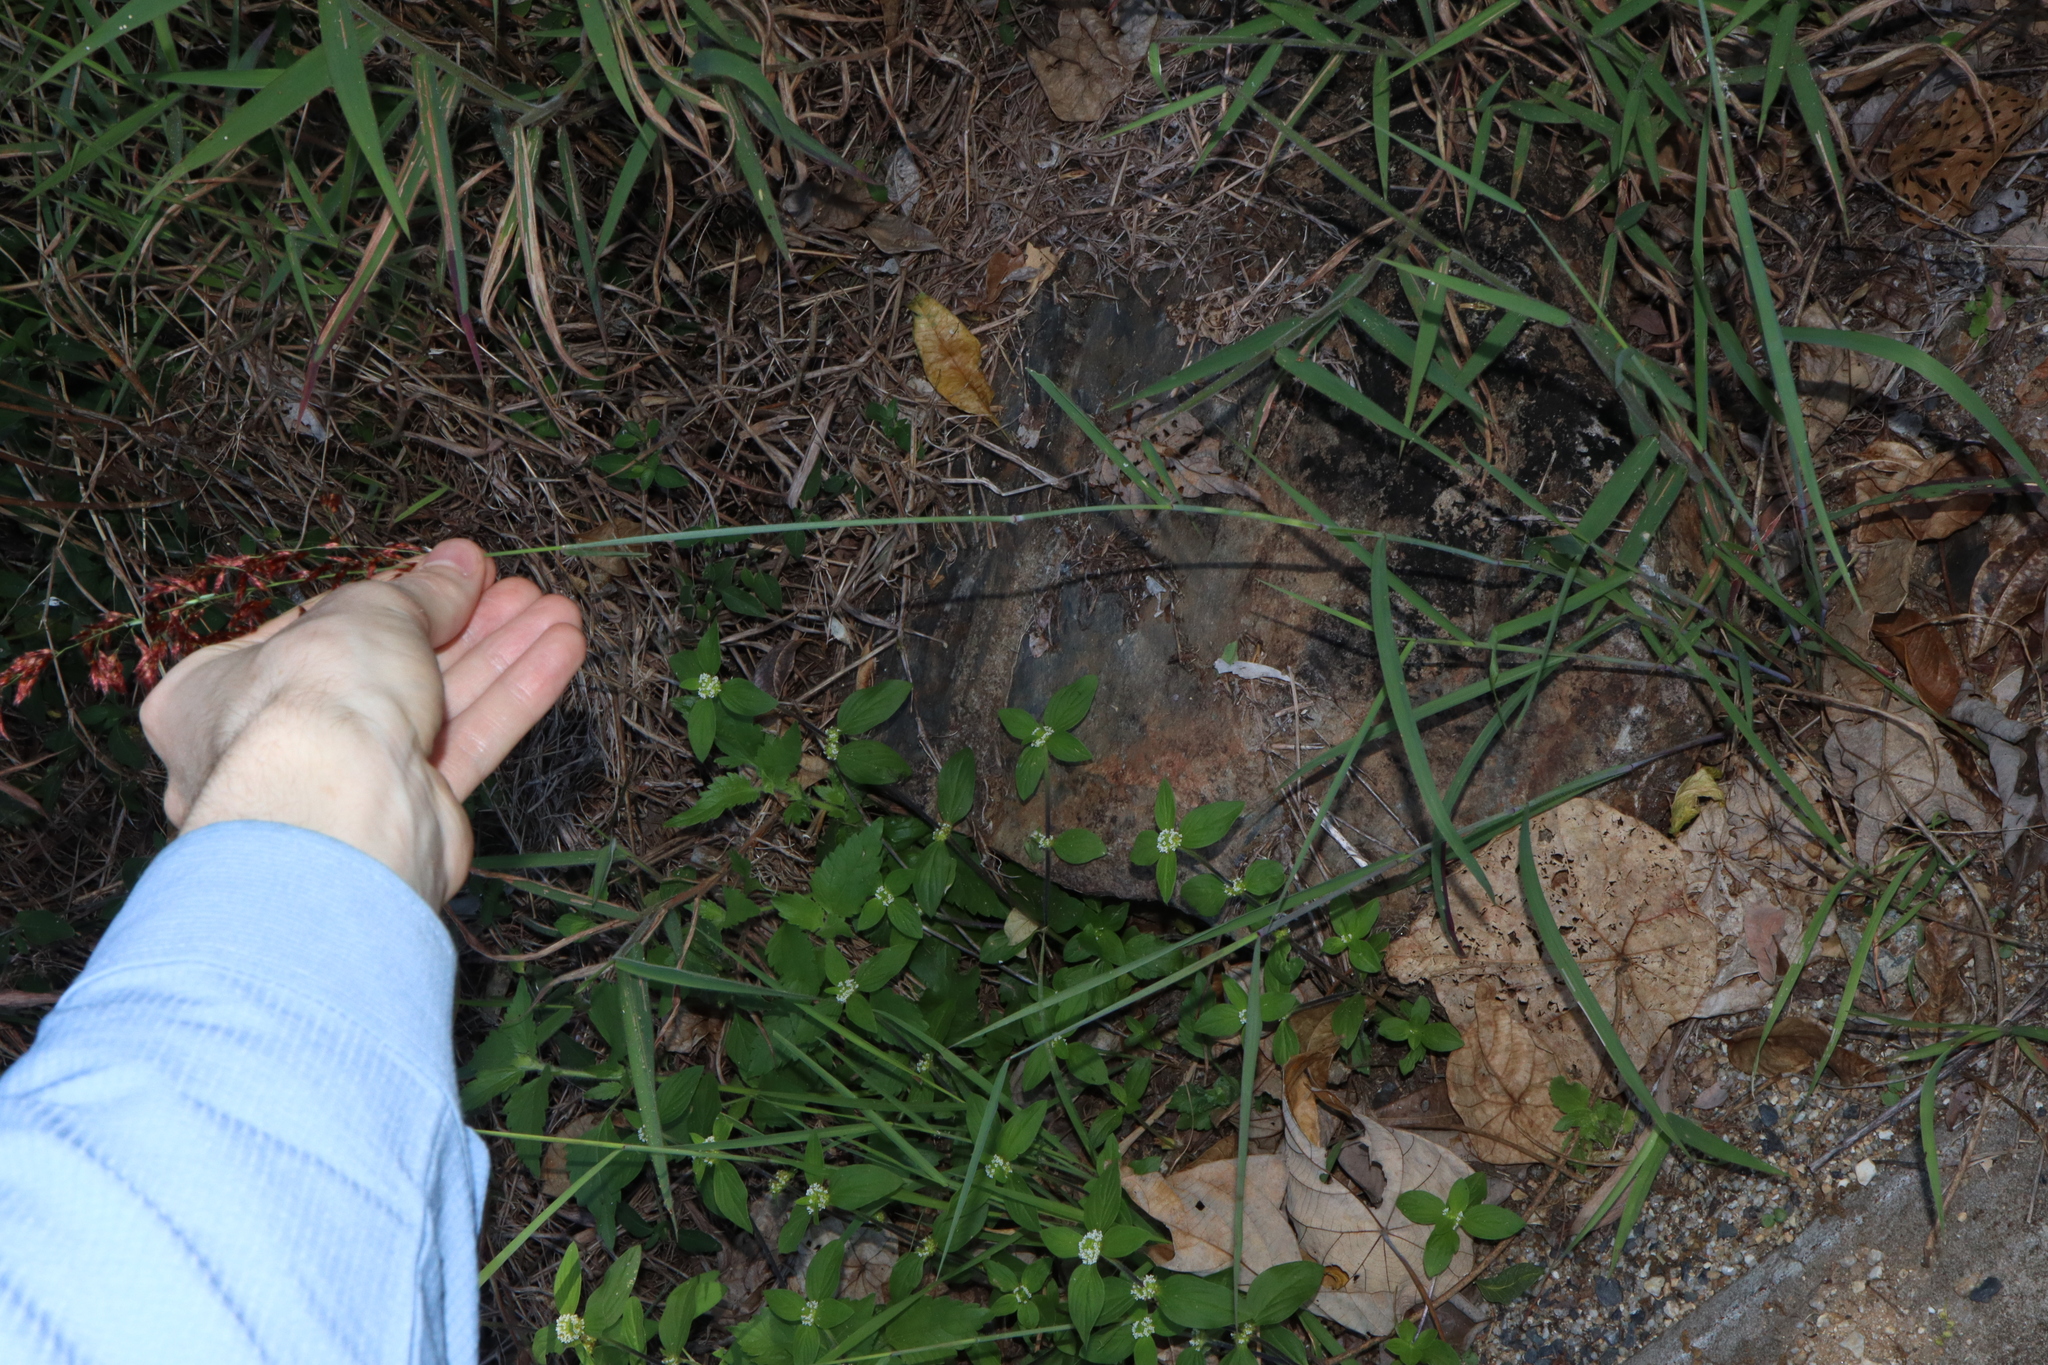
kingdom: Plantae
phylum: Tracheophyta
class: Liliopsida
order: Poales
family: Poaceae
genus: Melinis
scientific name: Melinis repens
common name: Rose natal grass
